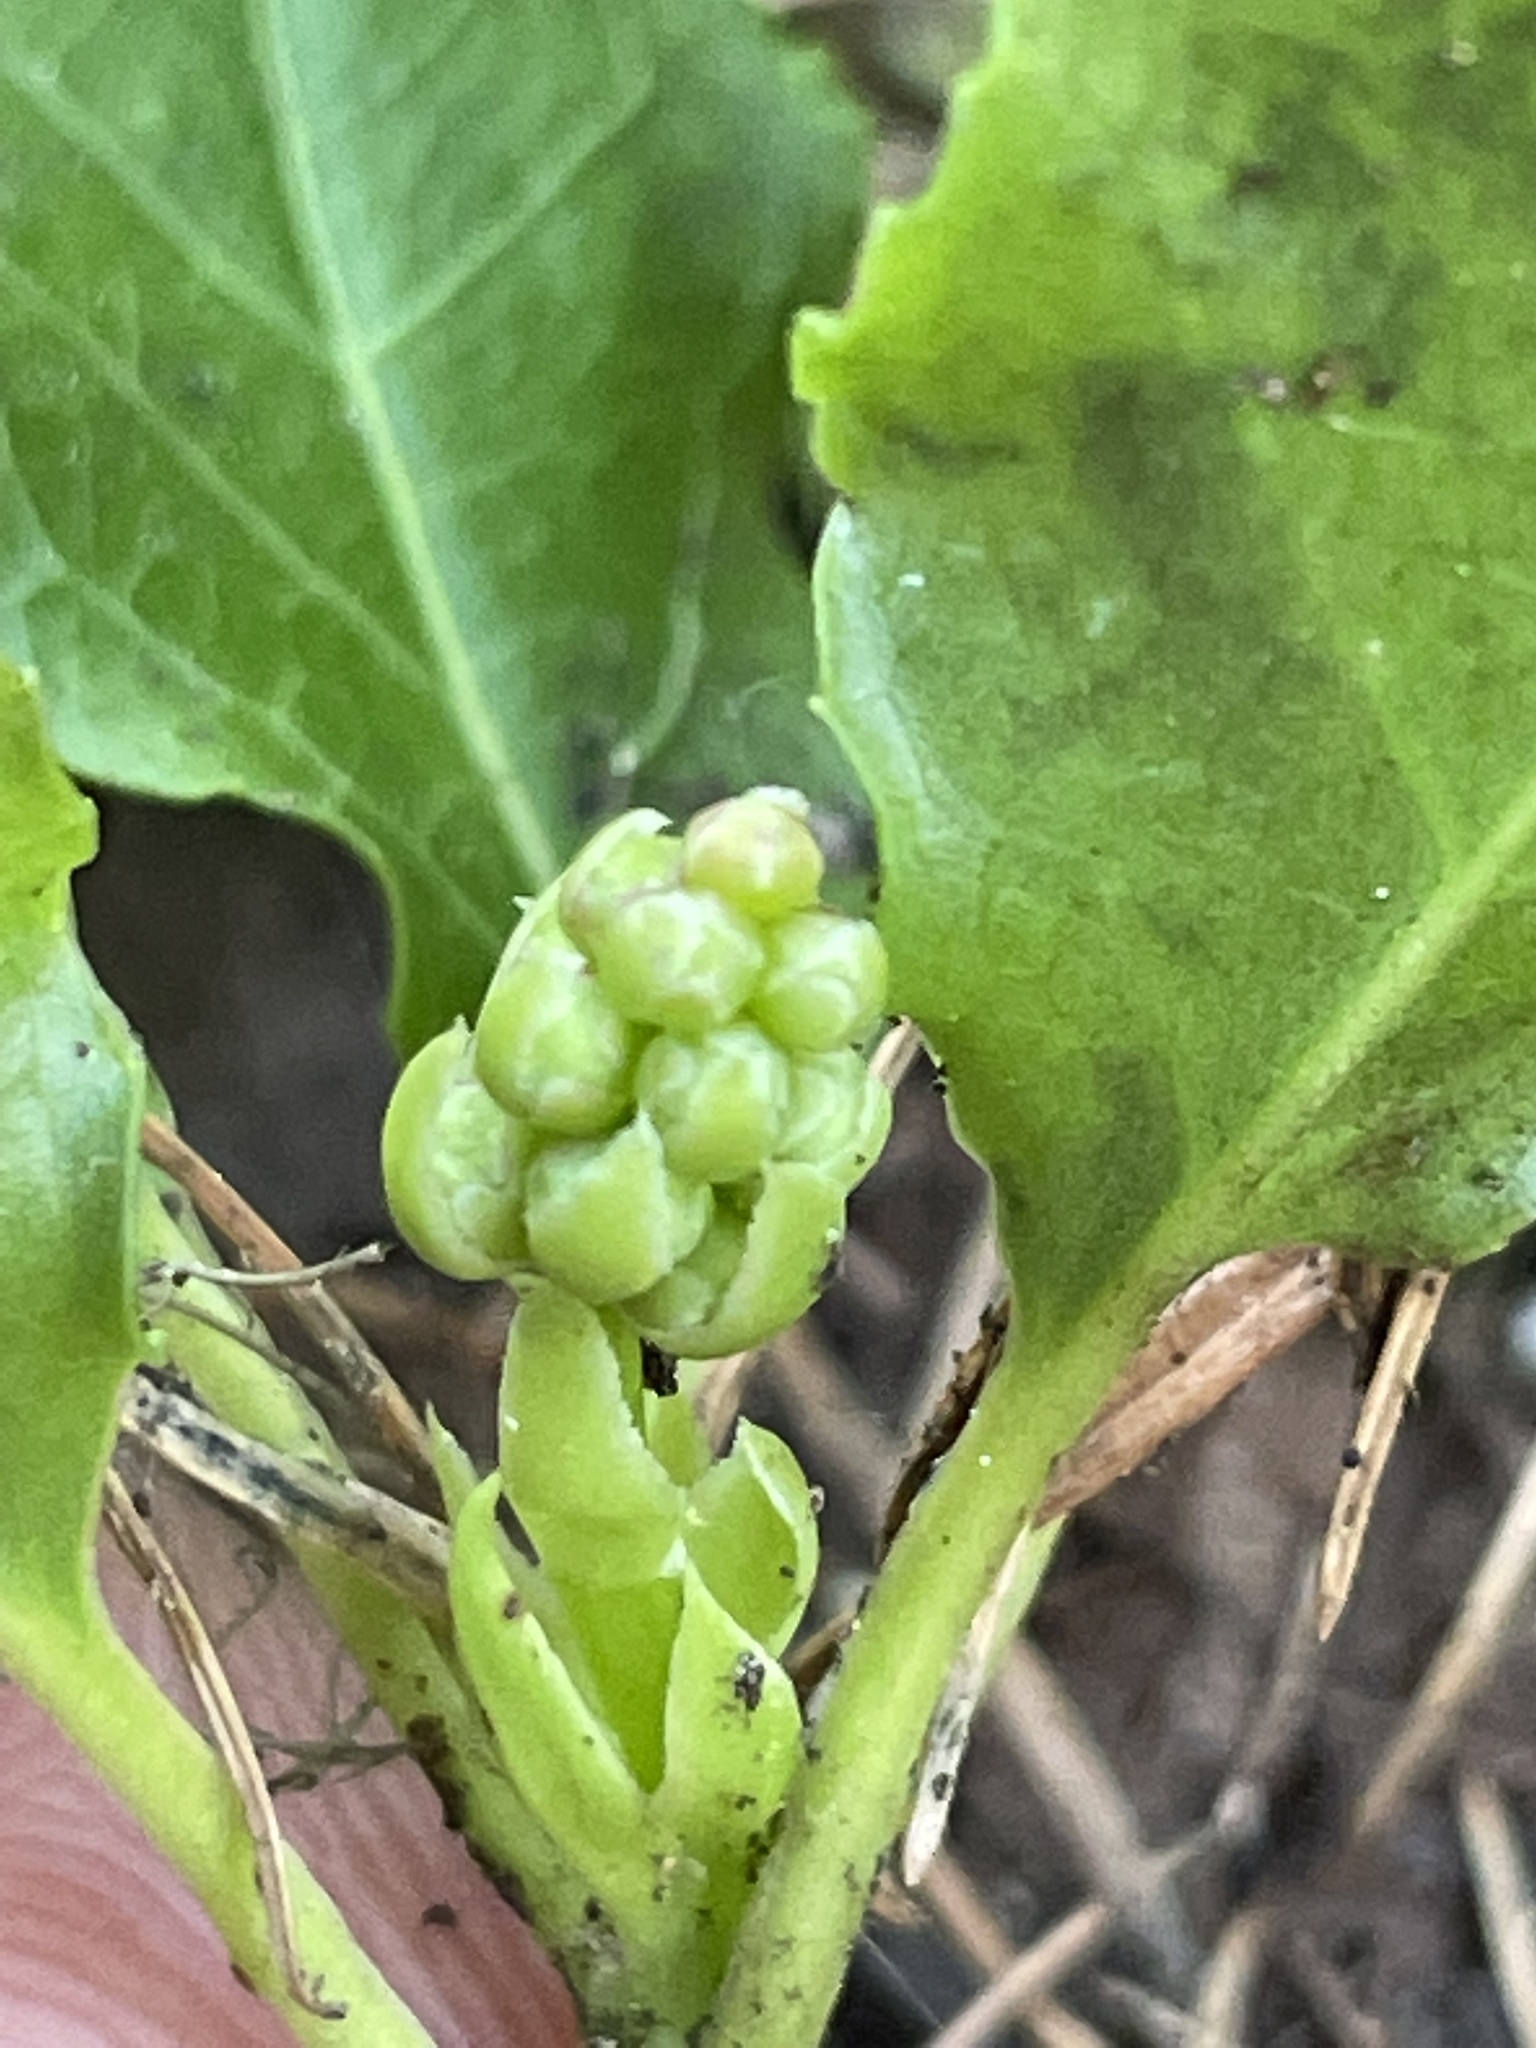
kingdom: Plantae
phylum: Tracheophyta
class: Magnoliopsida
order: Ericales
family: Ericaceae
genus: Orthilia
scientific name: Orthilia secunda
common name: One-sided orthilia
